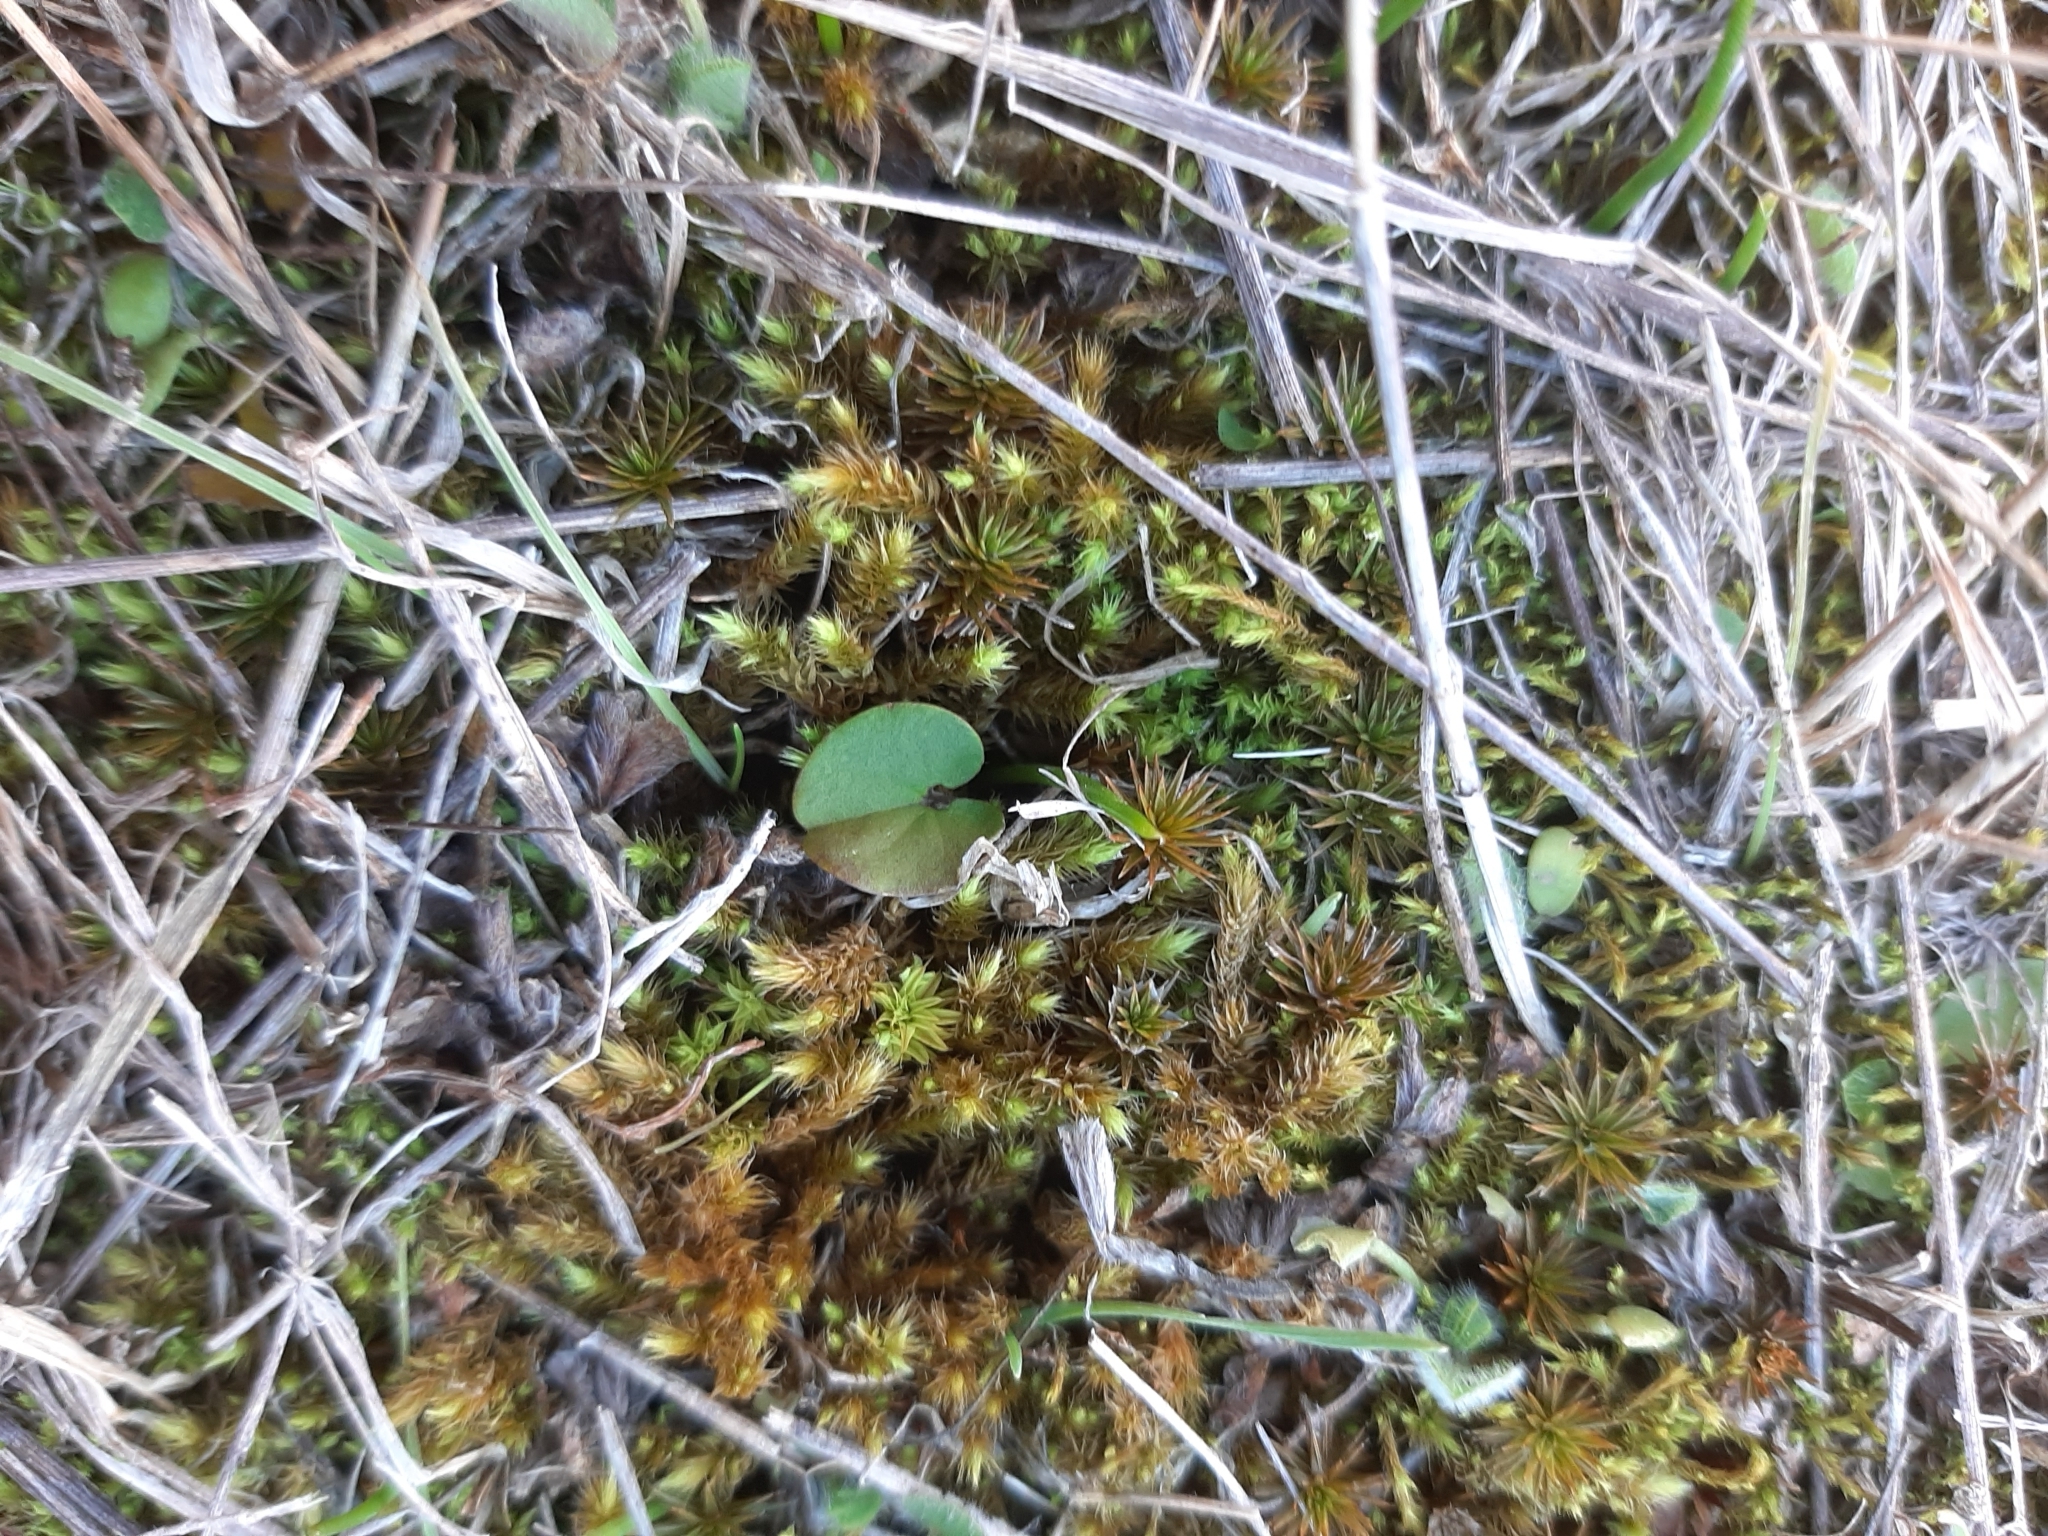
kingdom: Plantae
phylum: Tracheophyta
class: Magnoliopsida
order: Solanales
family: Convolvulaceae
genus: Dichondra
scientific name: Dichondra brevifolia
